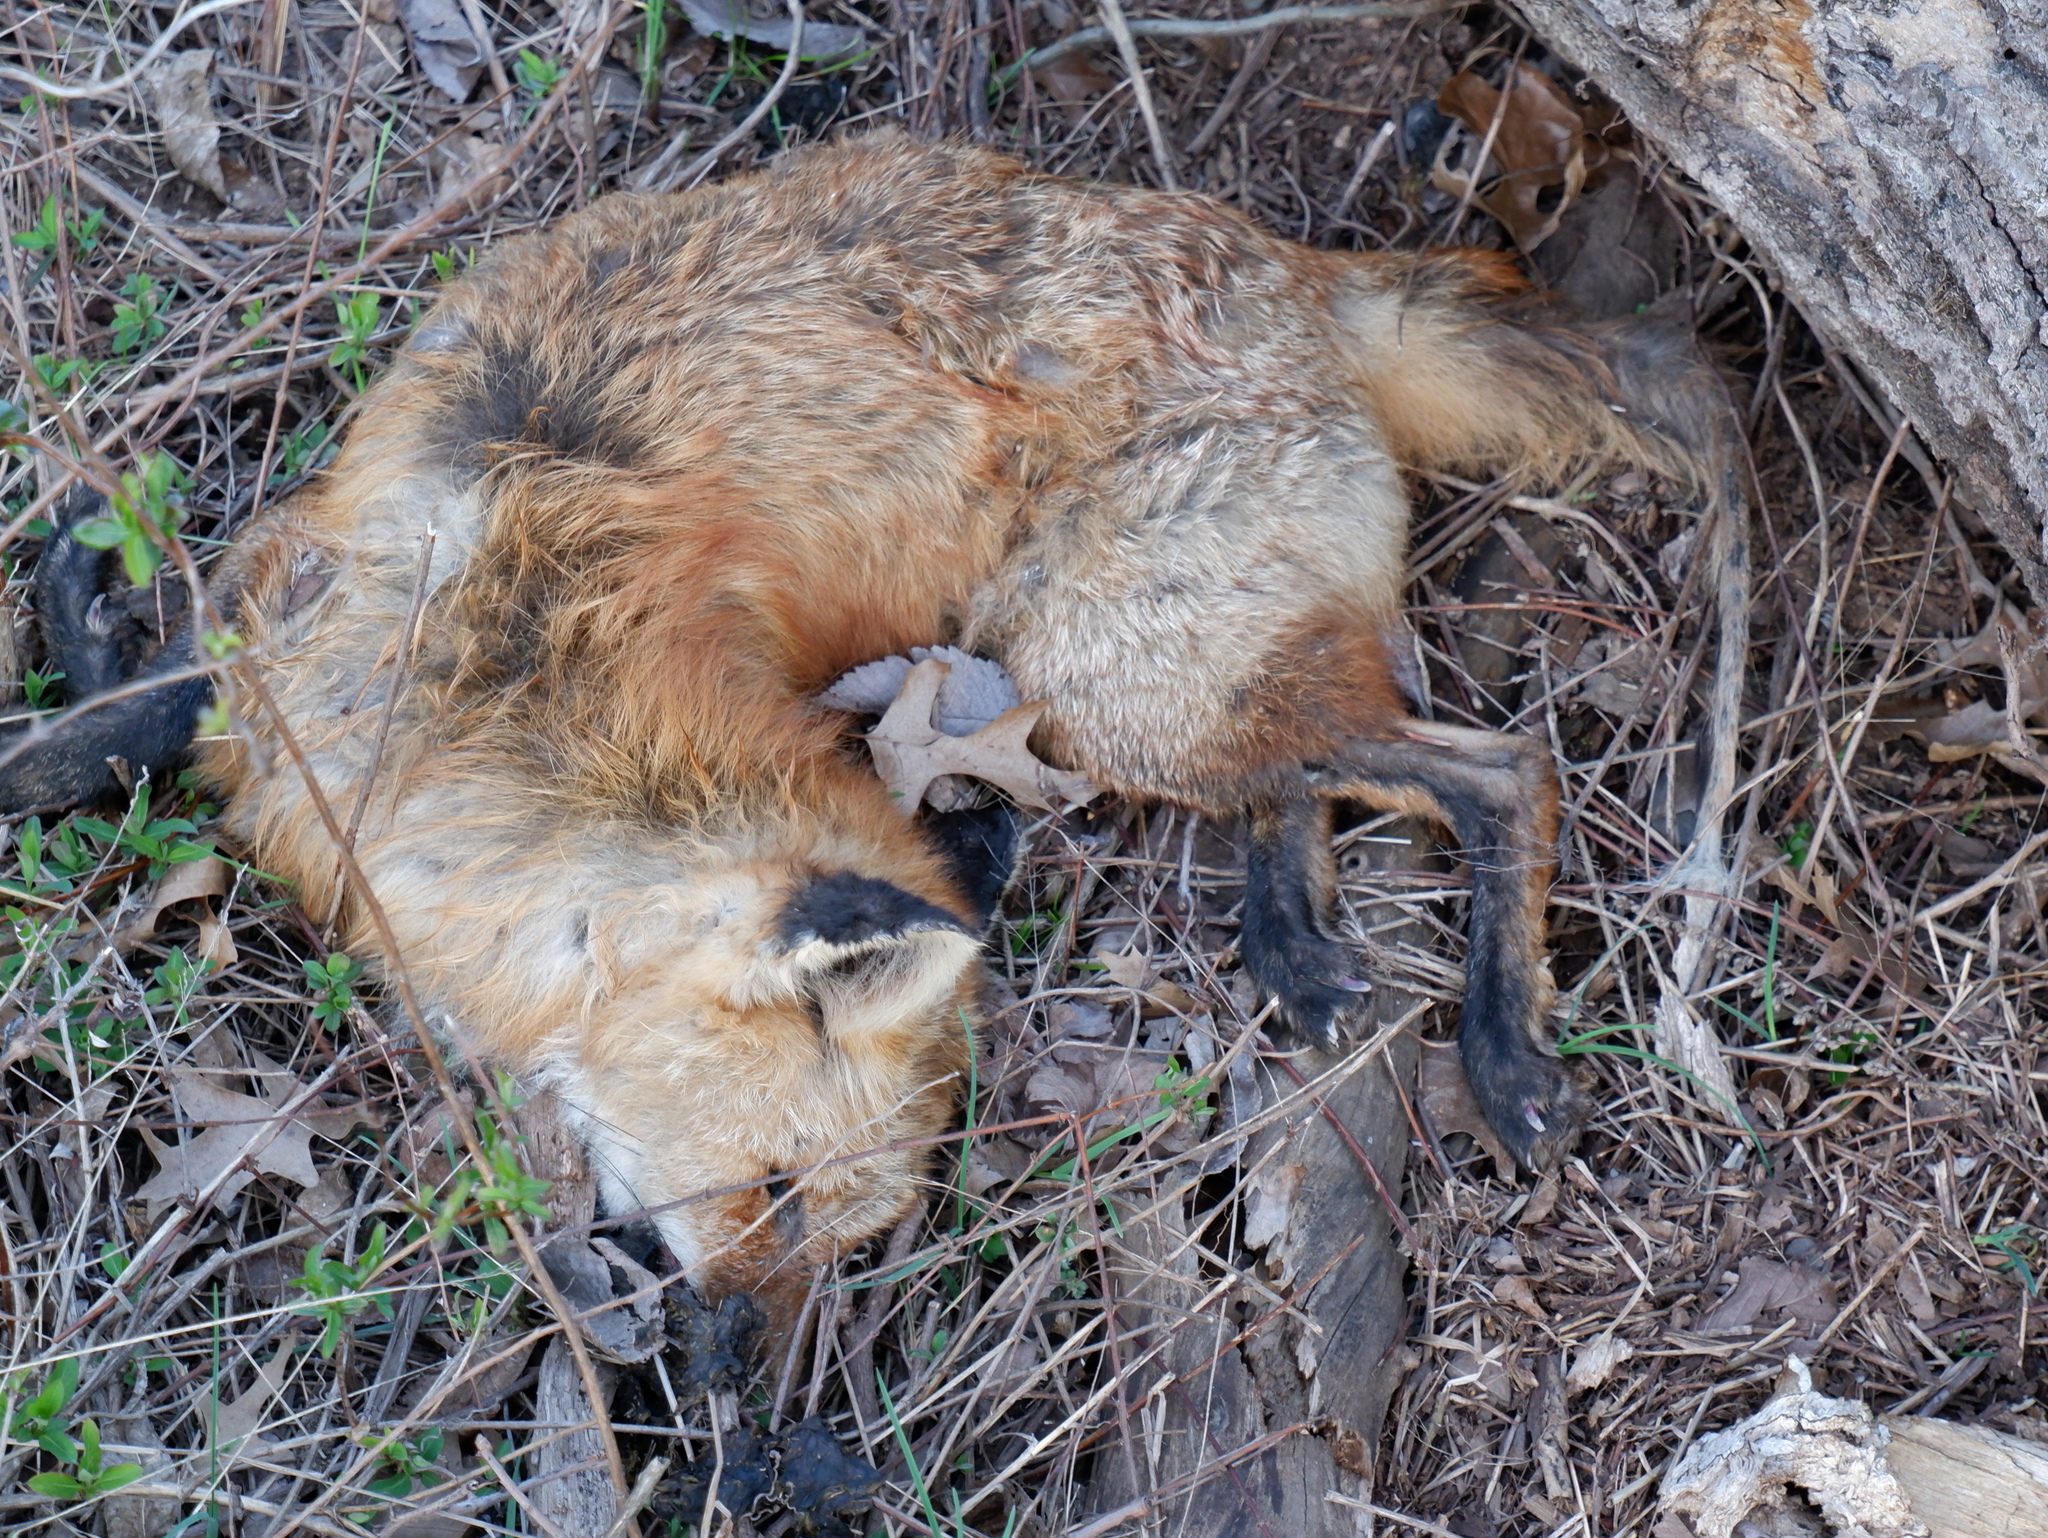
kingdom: Animalia
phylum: Chordata
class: Mammalia
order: Carnivora
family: Canidae
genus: Vulpes
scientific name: Vulpes vulpes
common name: Red fox
